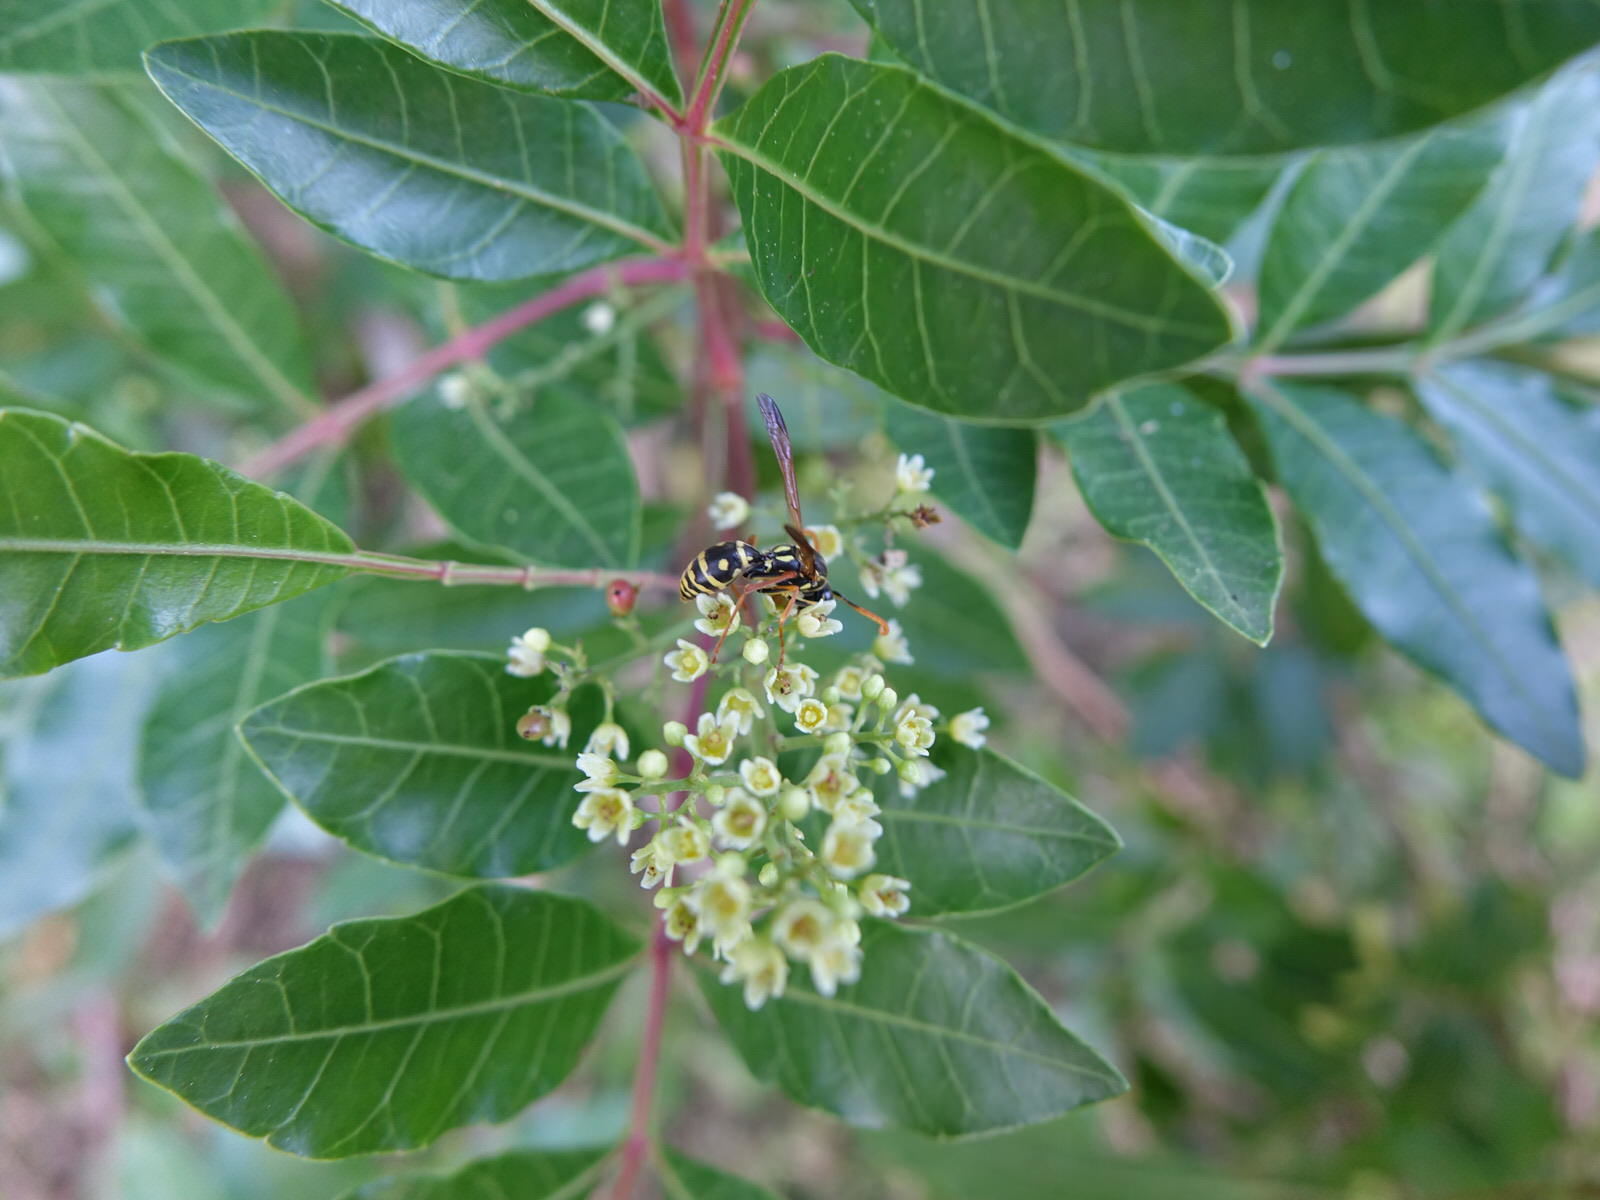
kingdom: Animalia
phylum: Arthropoda
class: Insecta
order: Hymenoptera
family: Eumenidae
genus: Polistes
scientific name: Polistes chinensis
